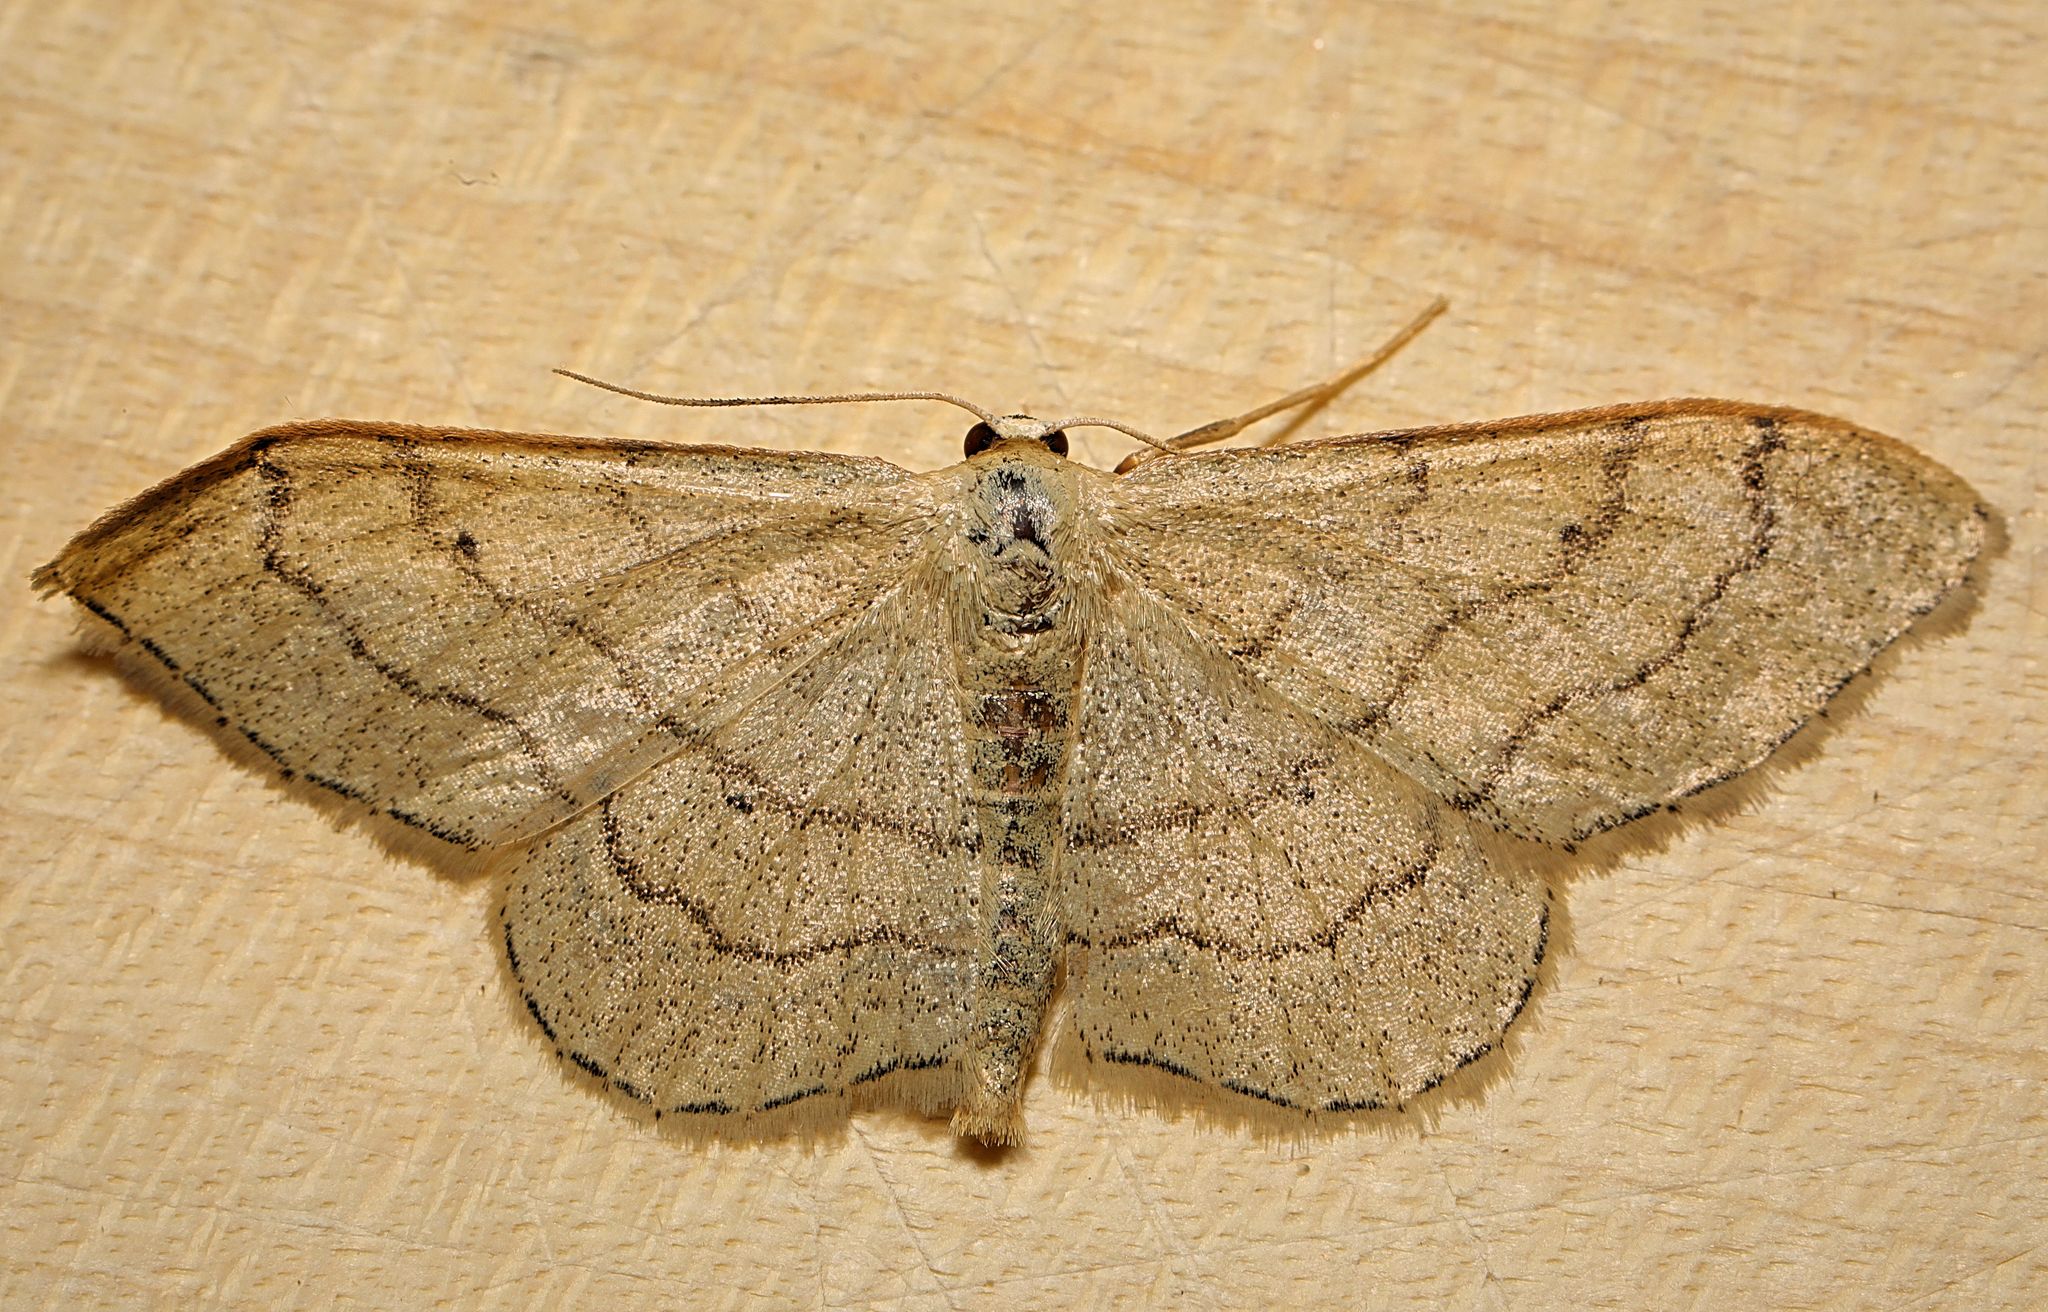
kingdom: Animalia
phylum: Arthropoda
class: Insecta
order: Lepidoptera
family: Geometridae
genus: Idaea
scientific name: Idaea aversata
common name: Riband wave
